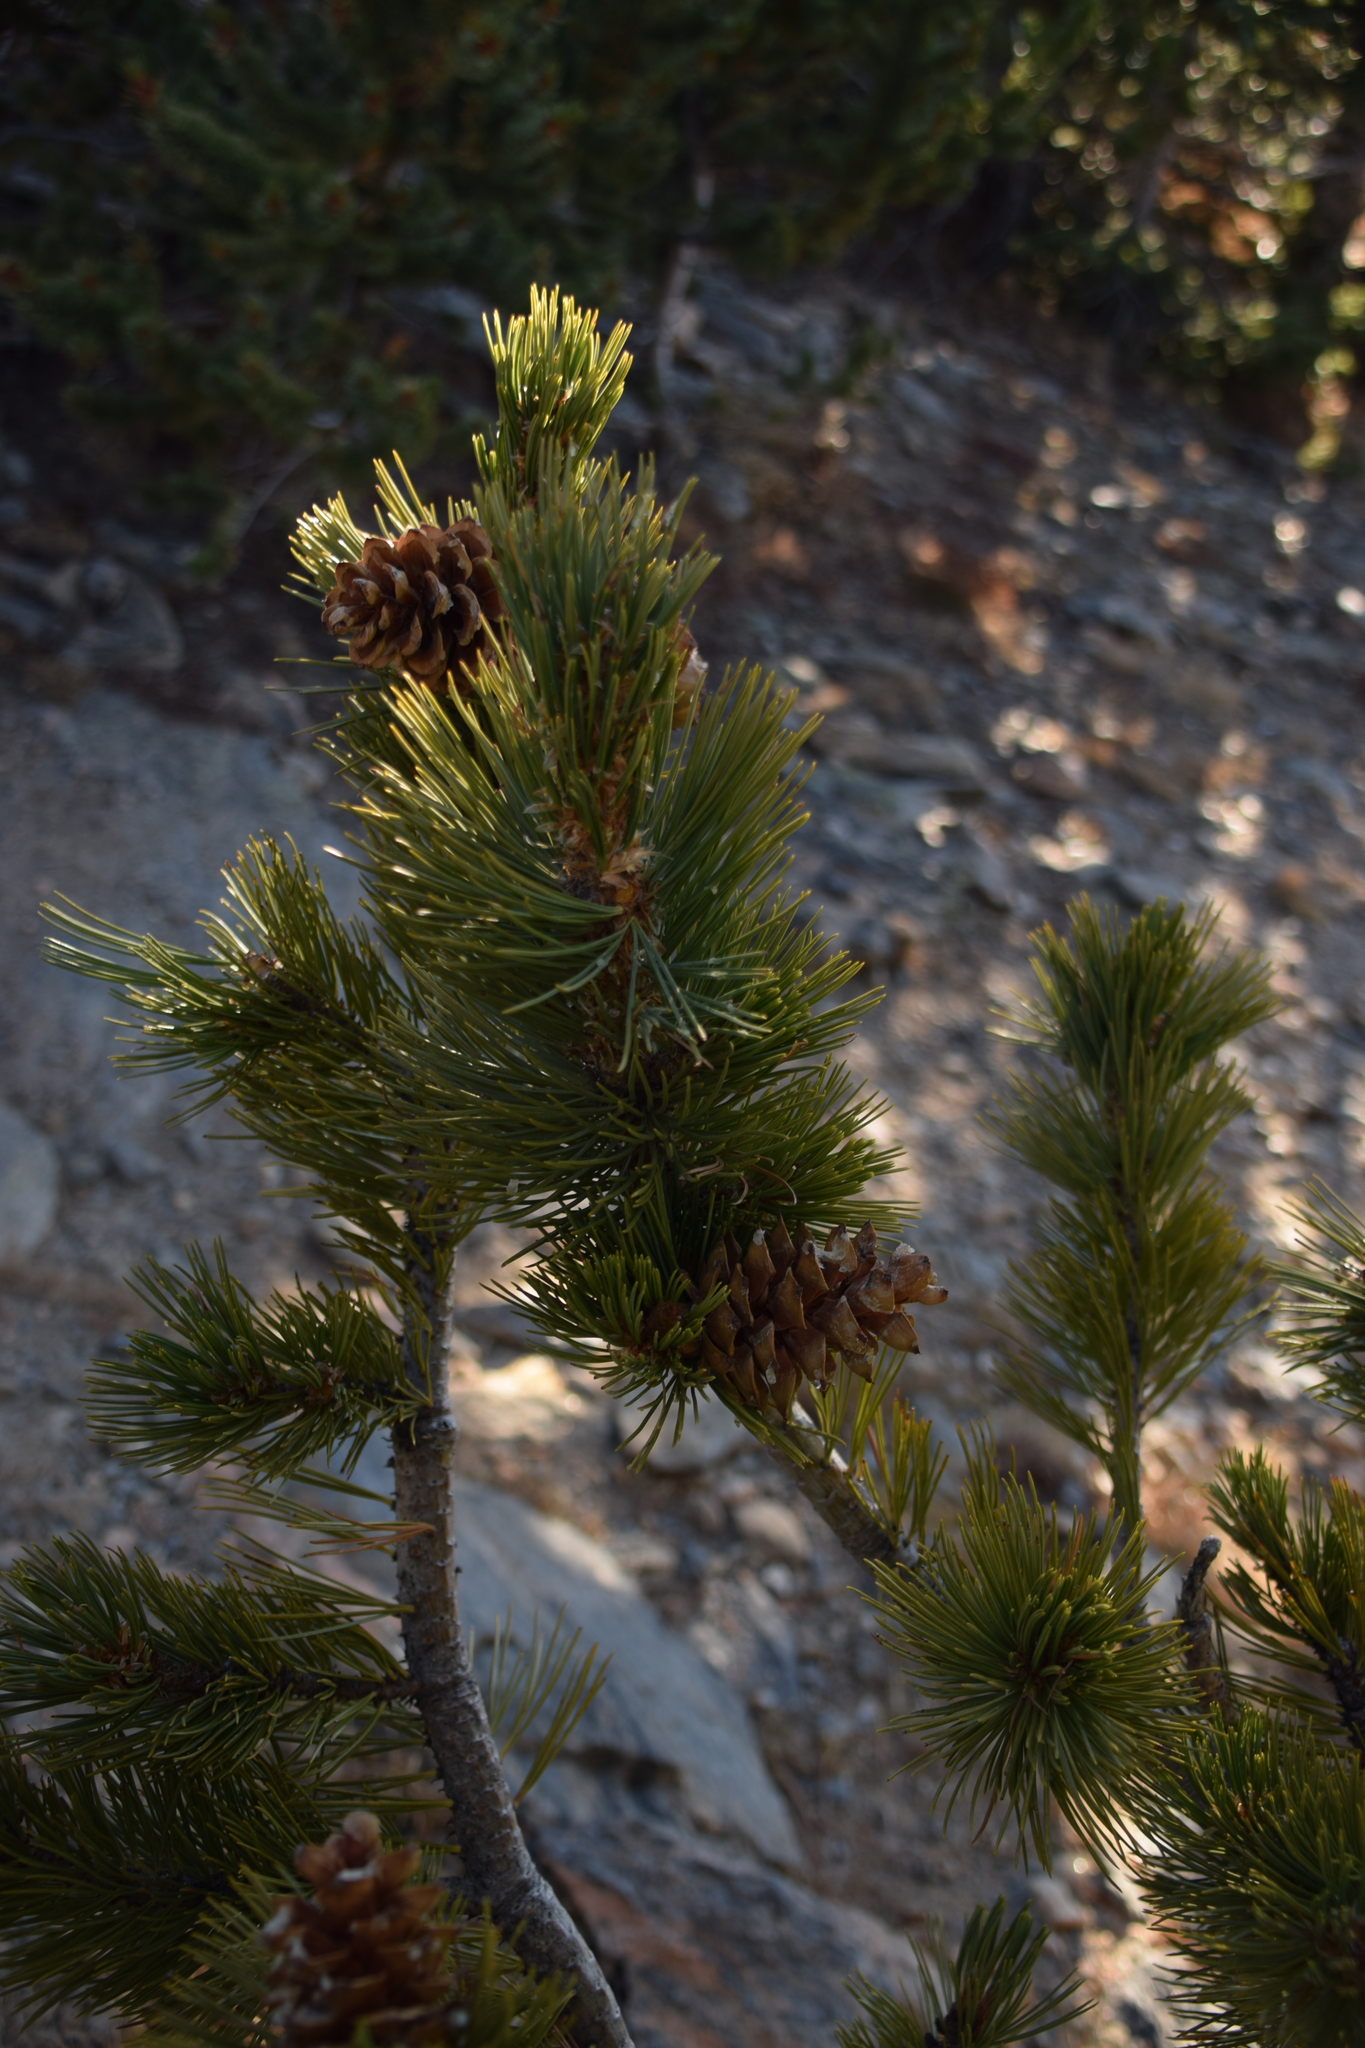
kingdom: Plantae
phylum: Tracheophyta
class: Pinopsida
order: Pinales
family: Pinaceae
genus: Pinus
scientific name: Pinus flexilis
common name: Limber pine
